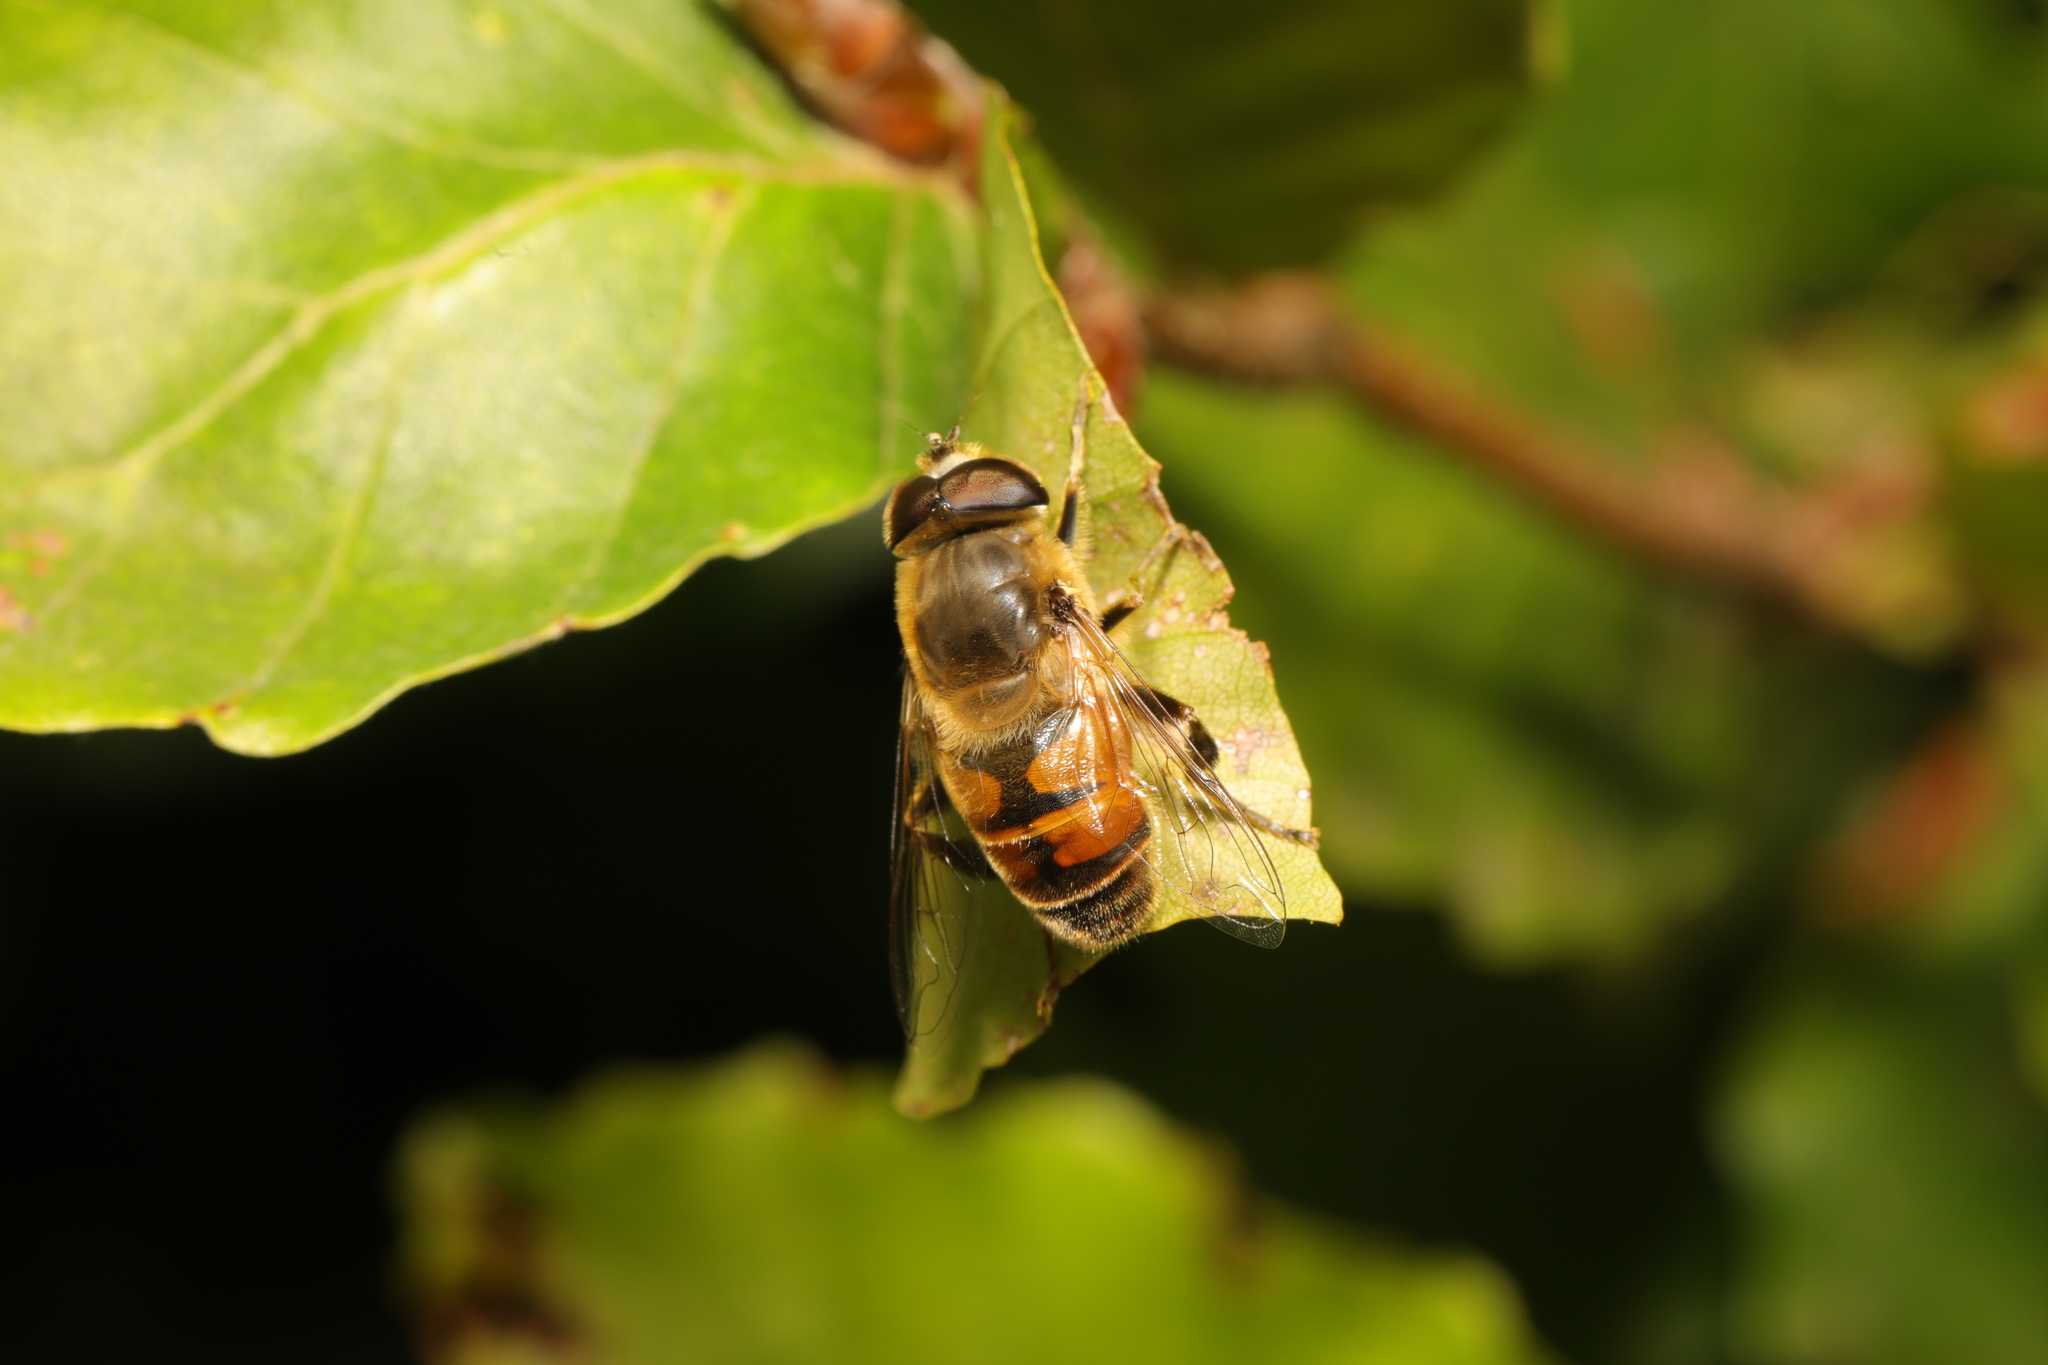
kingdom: Animalia
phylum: Arthropoda
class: Insecta
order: Diptera
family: Syrphidae
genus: Eristalis
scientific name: Eristalis tenax
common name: Drone fly
